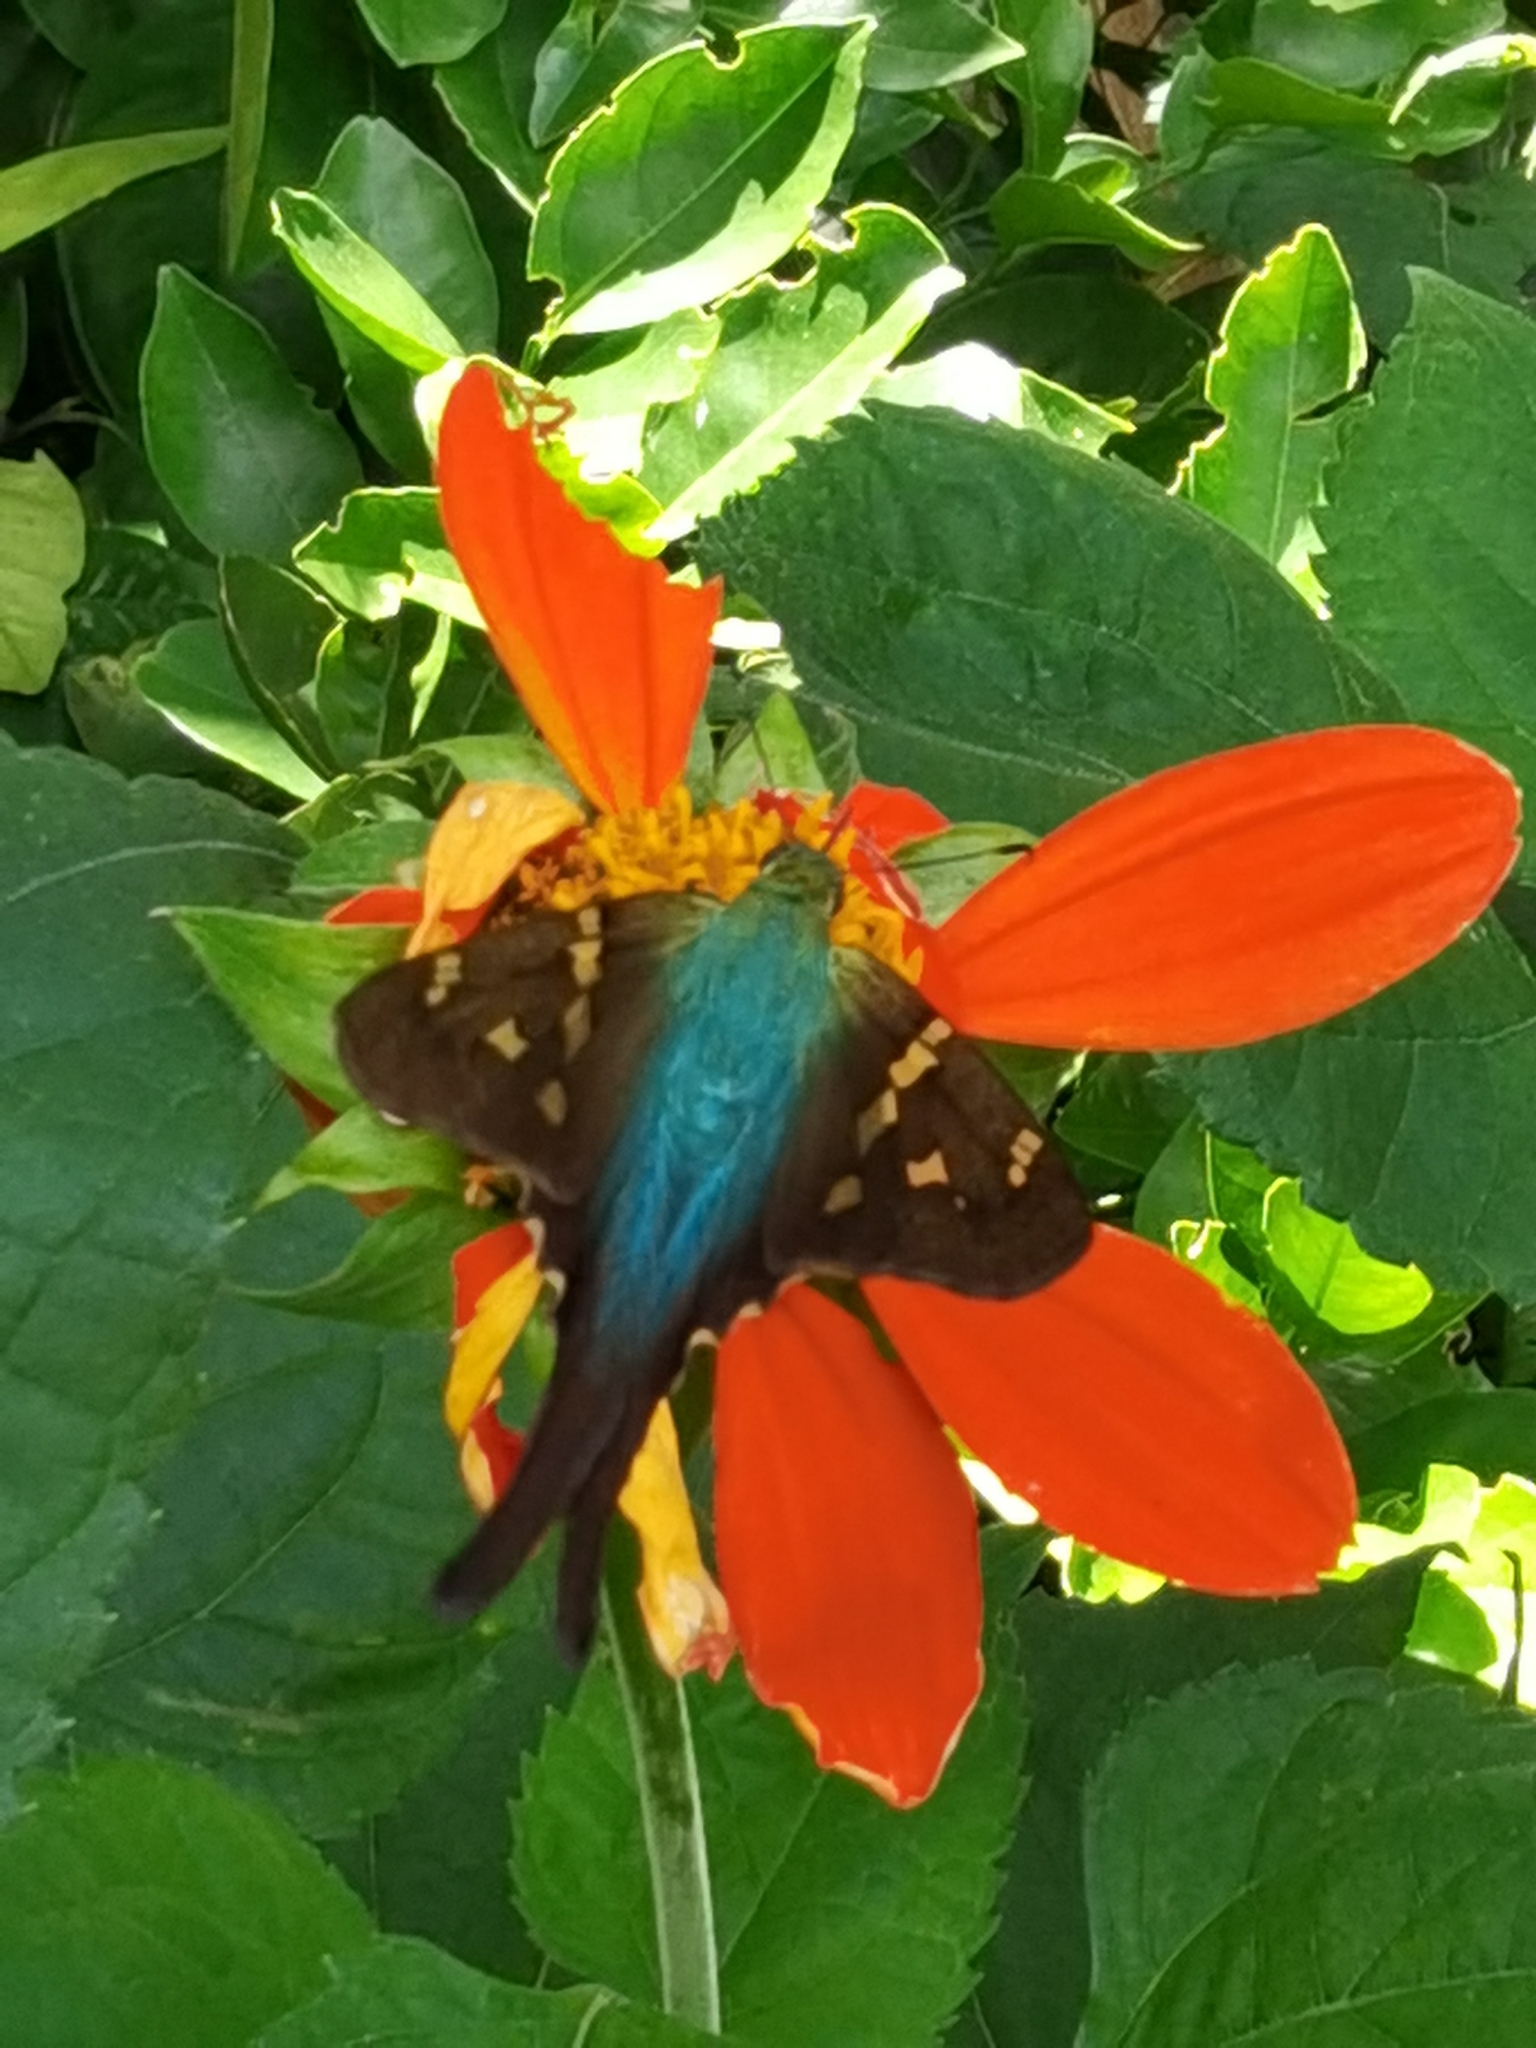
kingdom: Animalia
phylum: Arthropoda
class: Insecta
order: Lepidoptera
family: Hesperiidae
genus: Urbanus
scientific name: Urbanus proteus
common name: Long-tailed skipper
